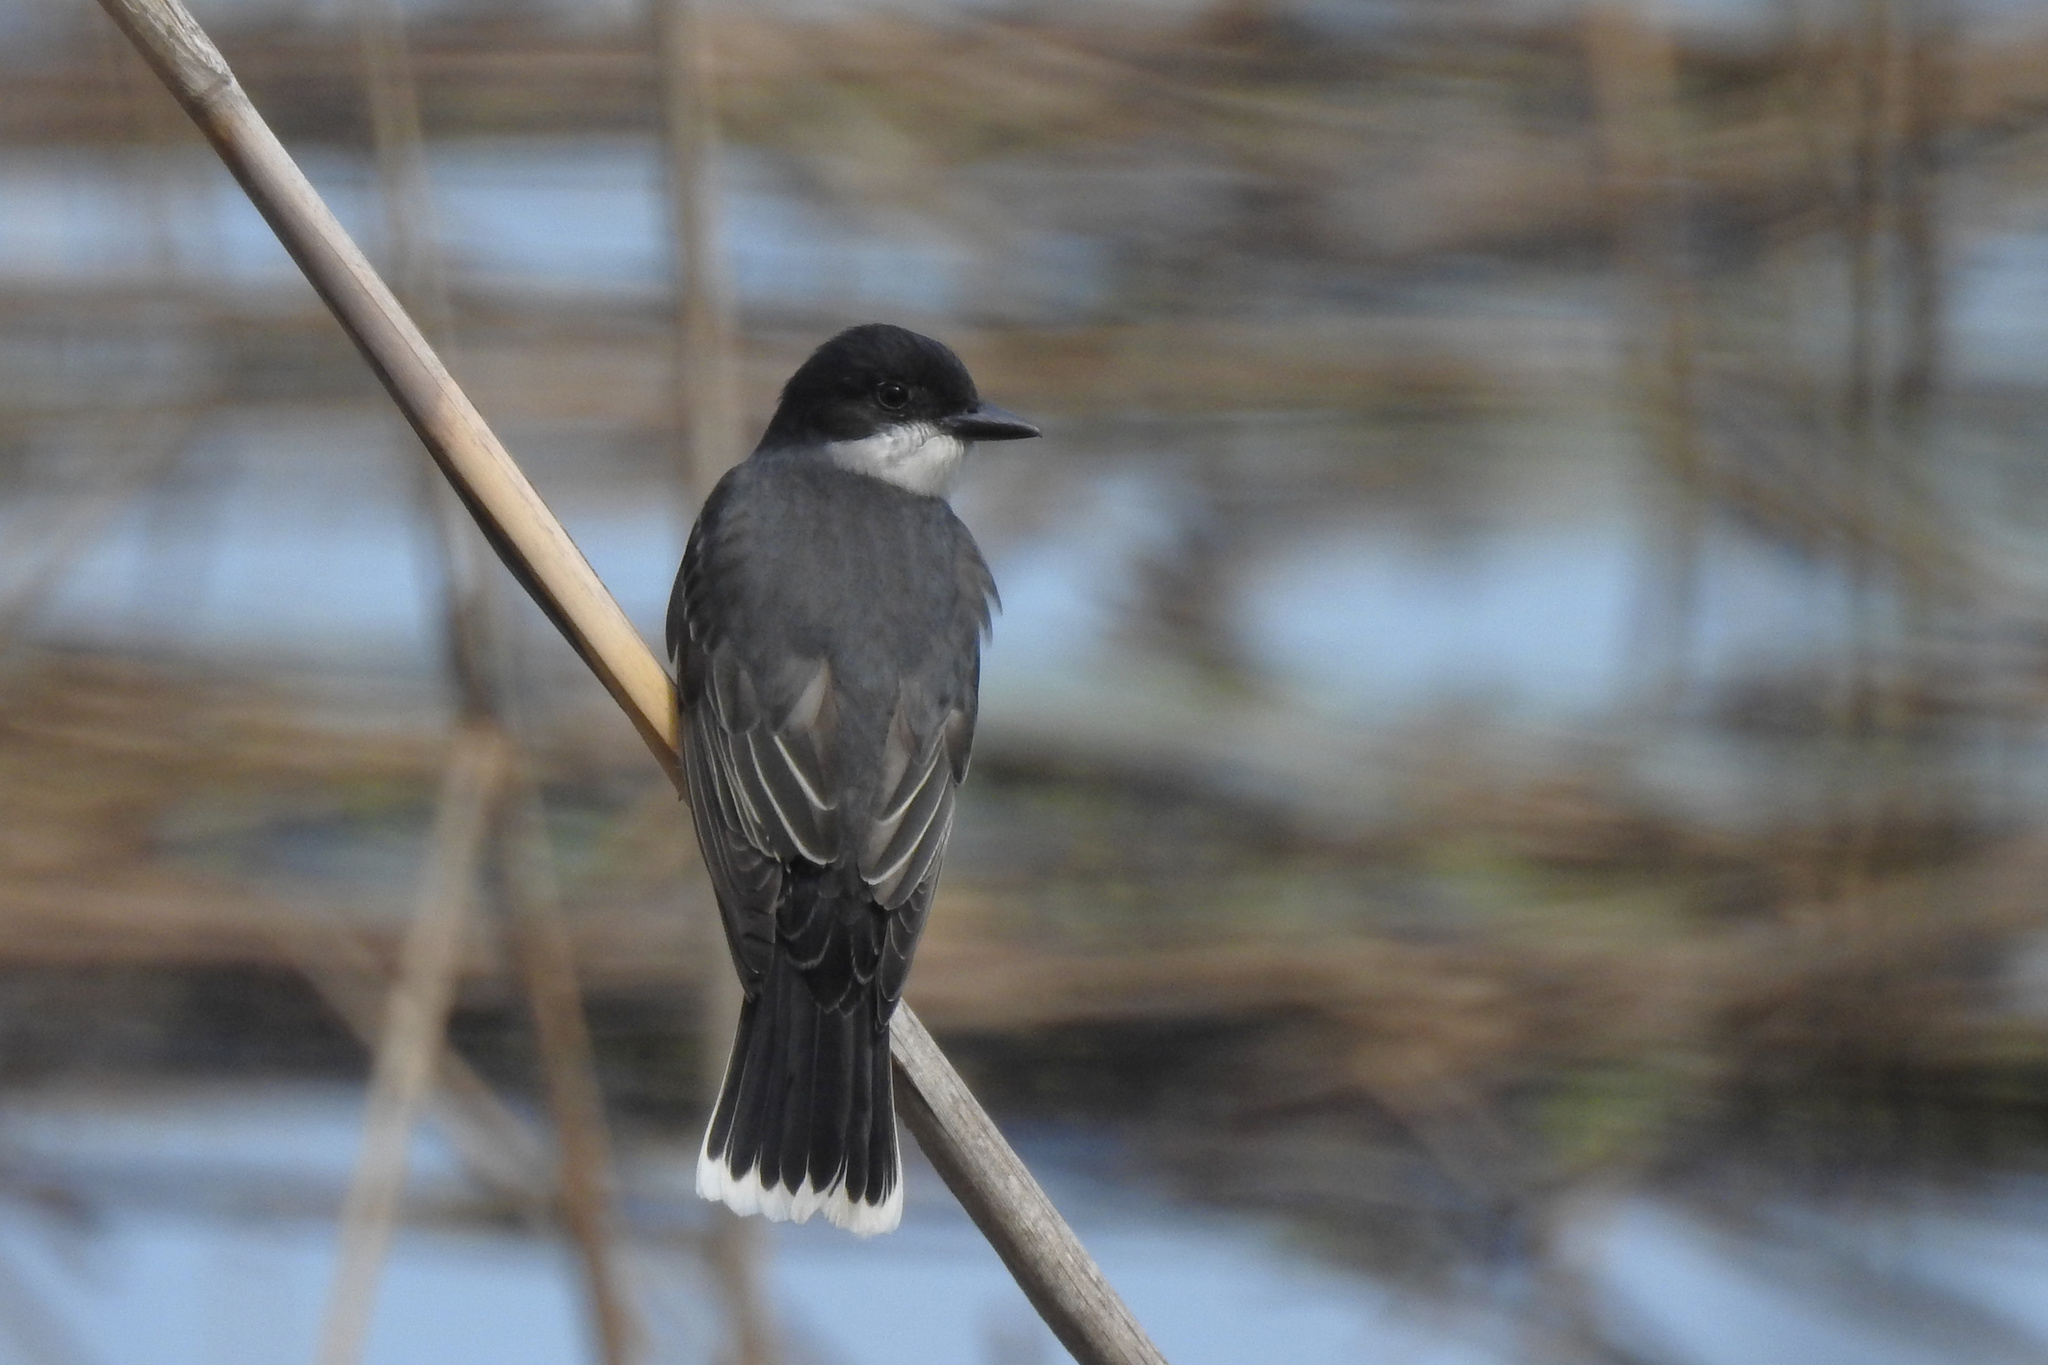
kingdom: Animalia
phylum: Chordata
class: Aves
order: Passeriformes
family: Tyrannidae
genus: Tyrannus
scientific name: Tyrannus tyrannus
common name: Eastern kingbird
